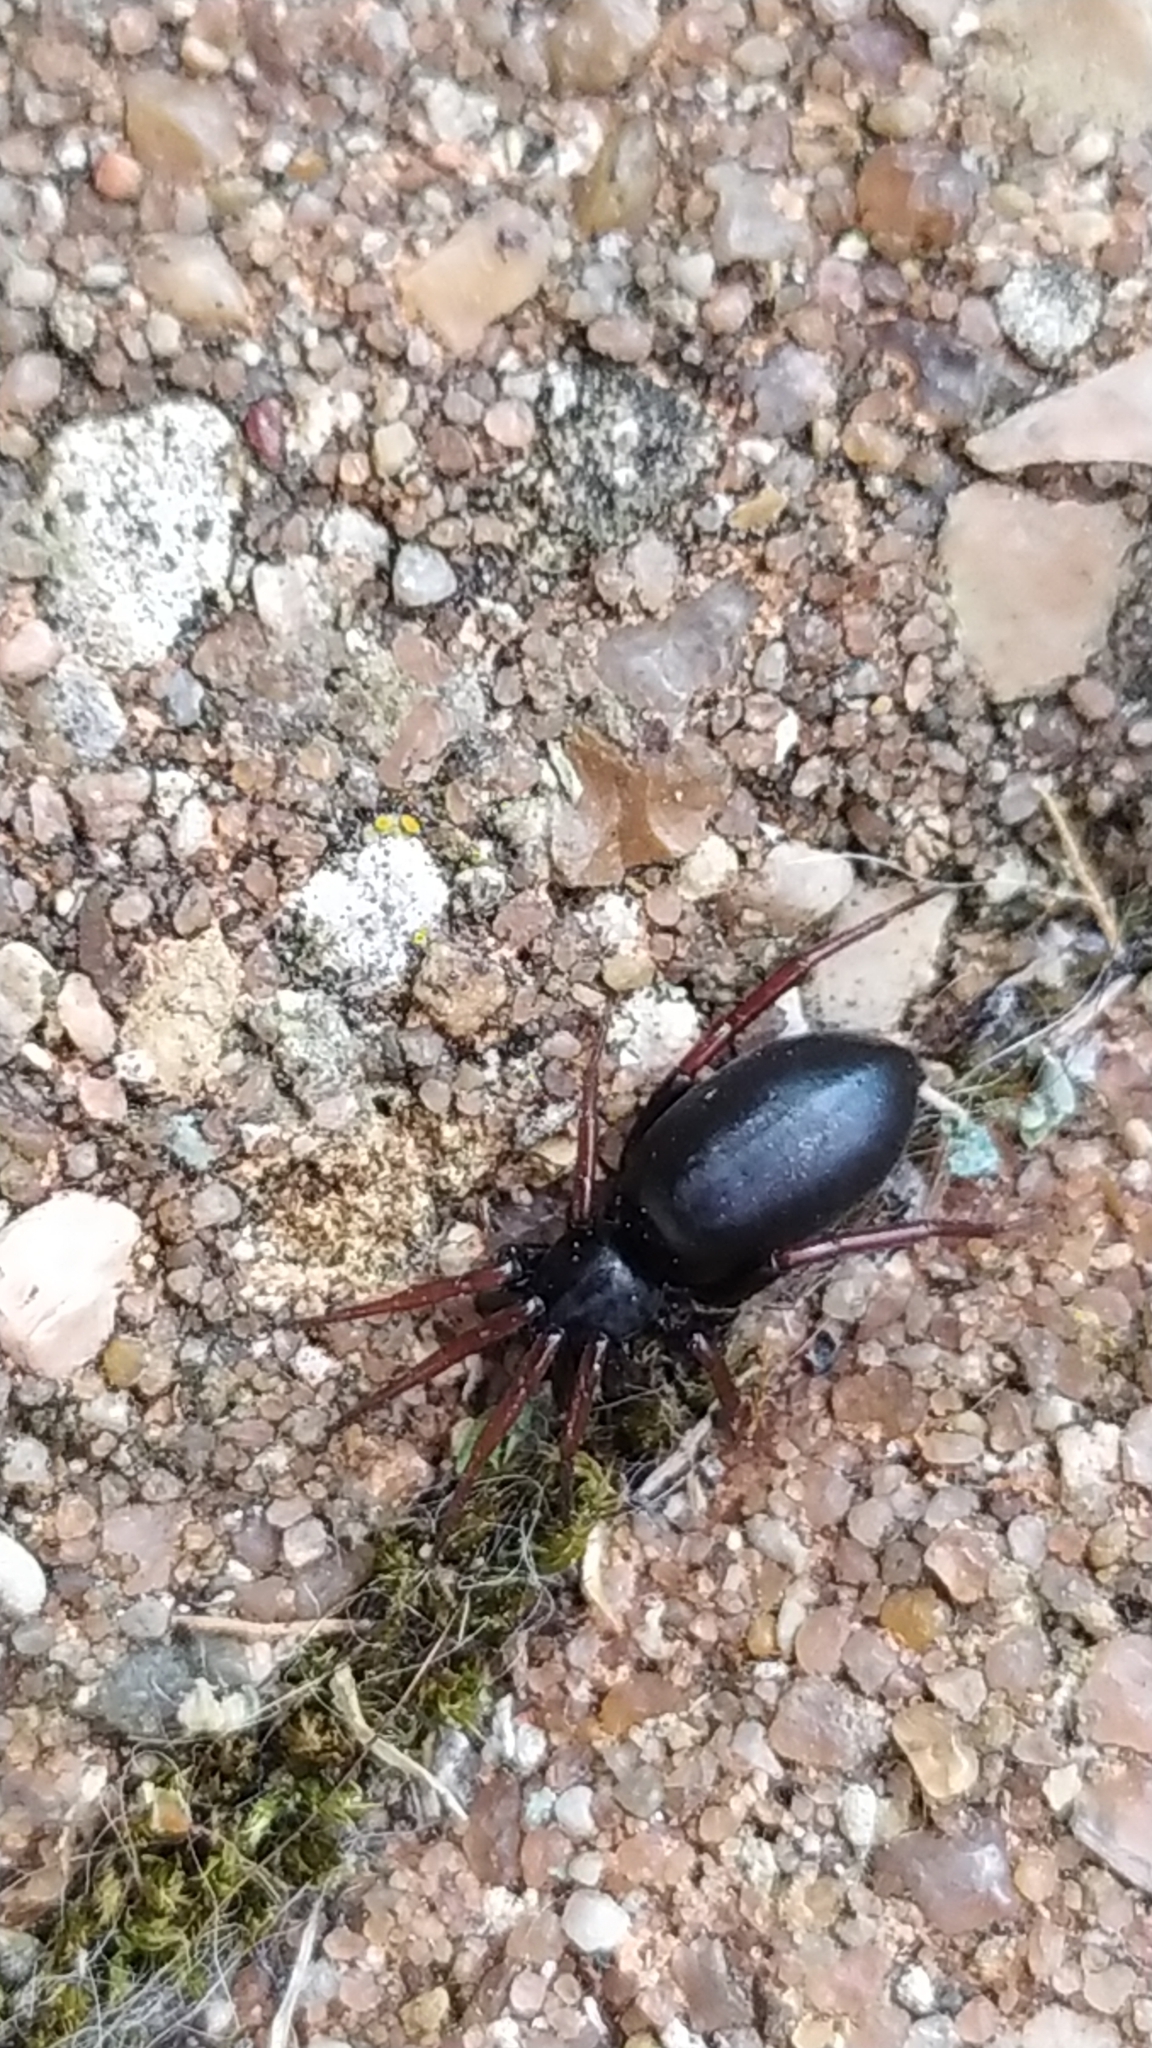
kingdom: Animalia
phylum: Arthropoda
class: Arachnida
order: Araneae
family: Gnaphosidae
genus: Trachyzelotes
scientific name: Trachyzelotes pedestris
